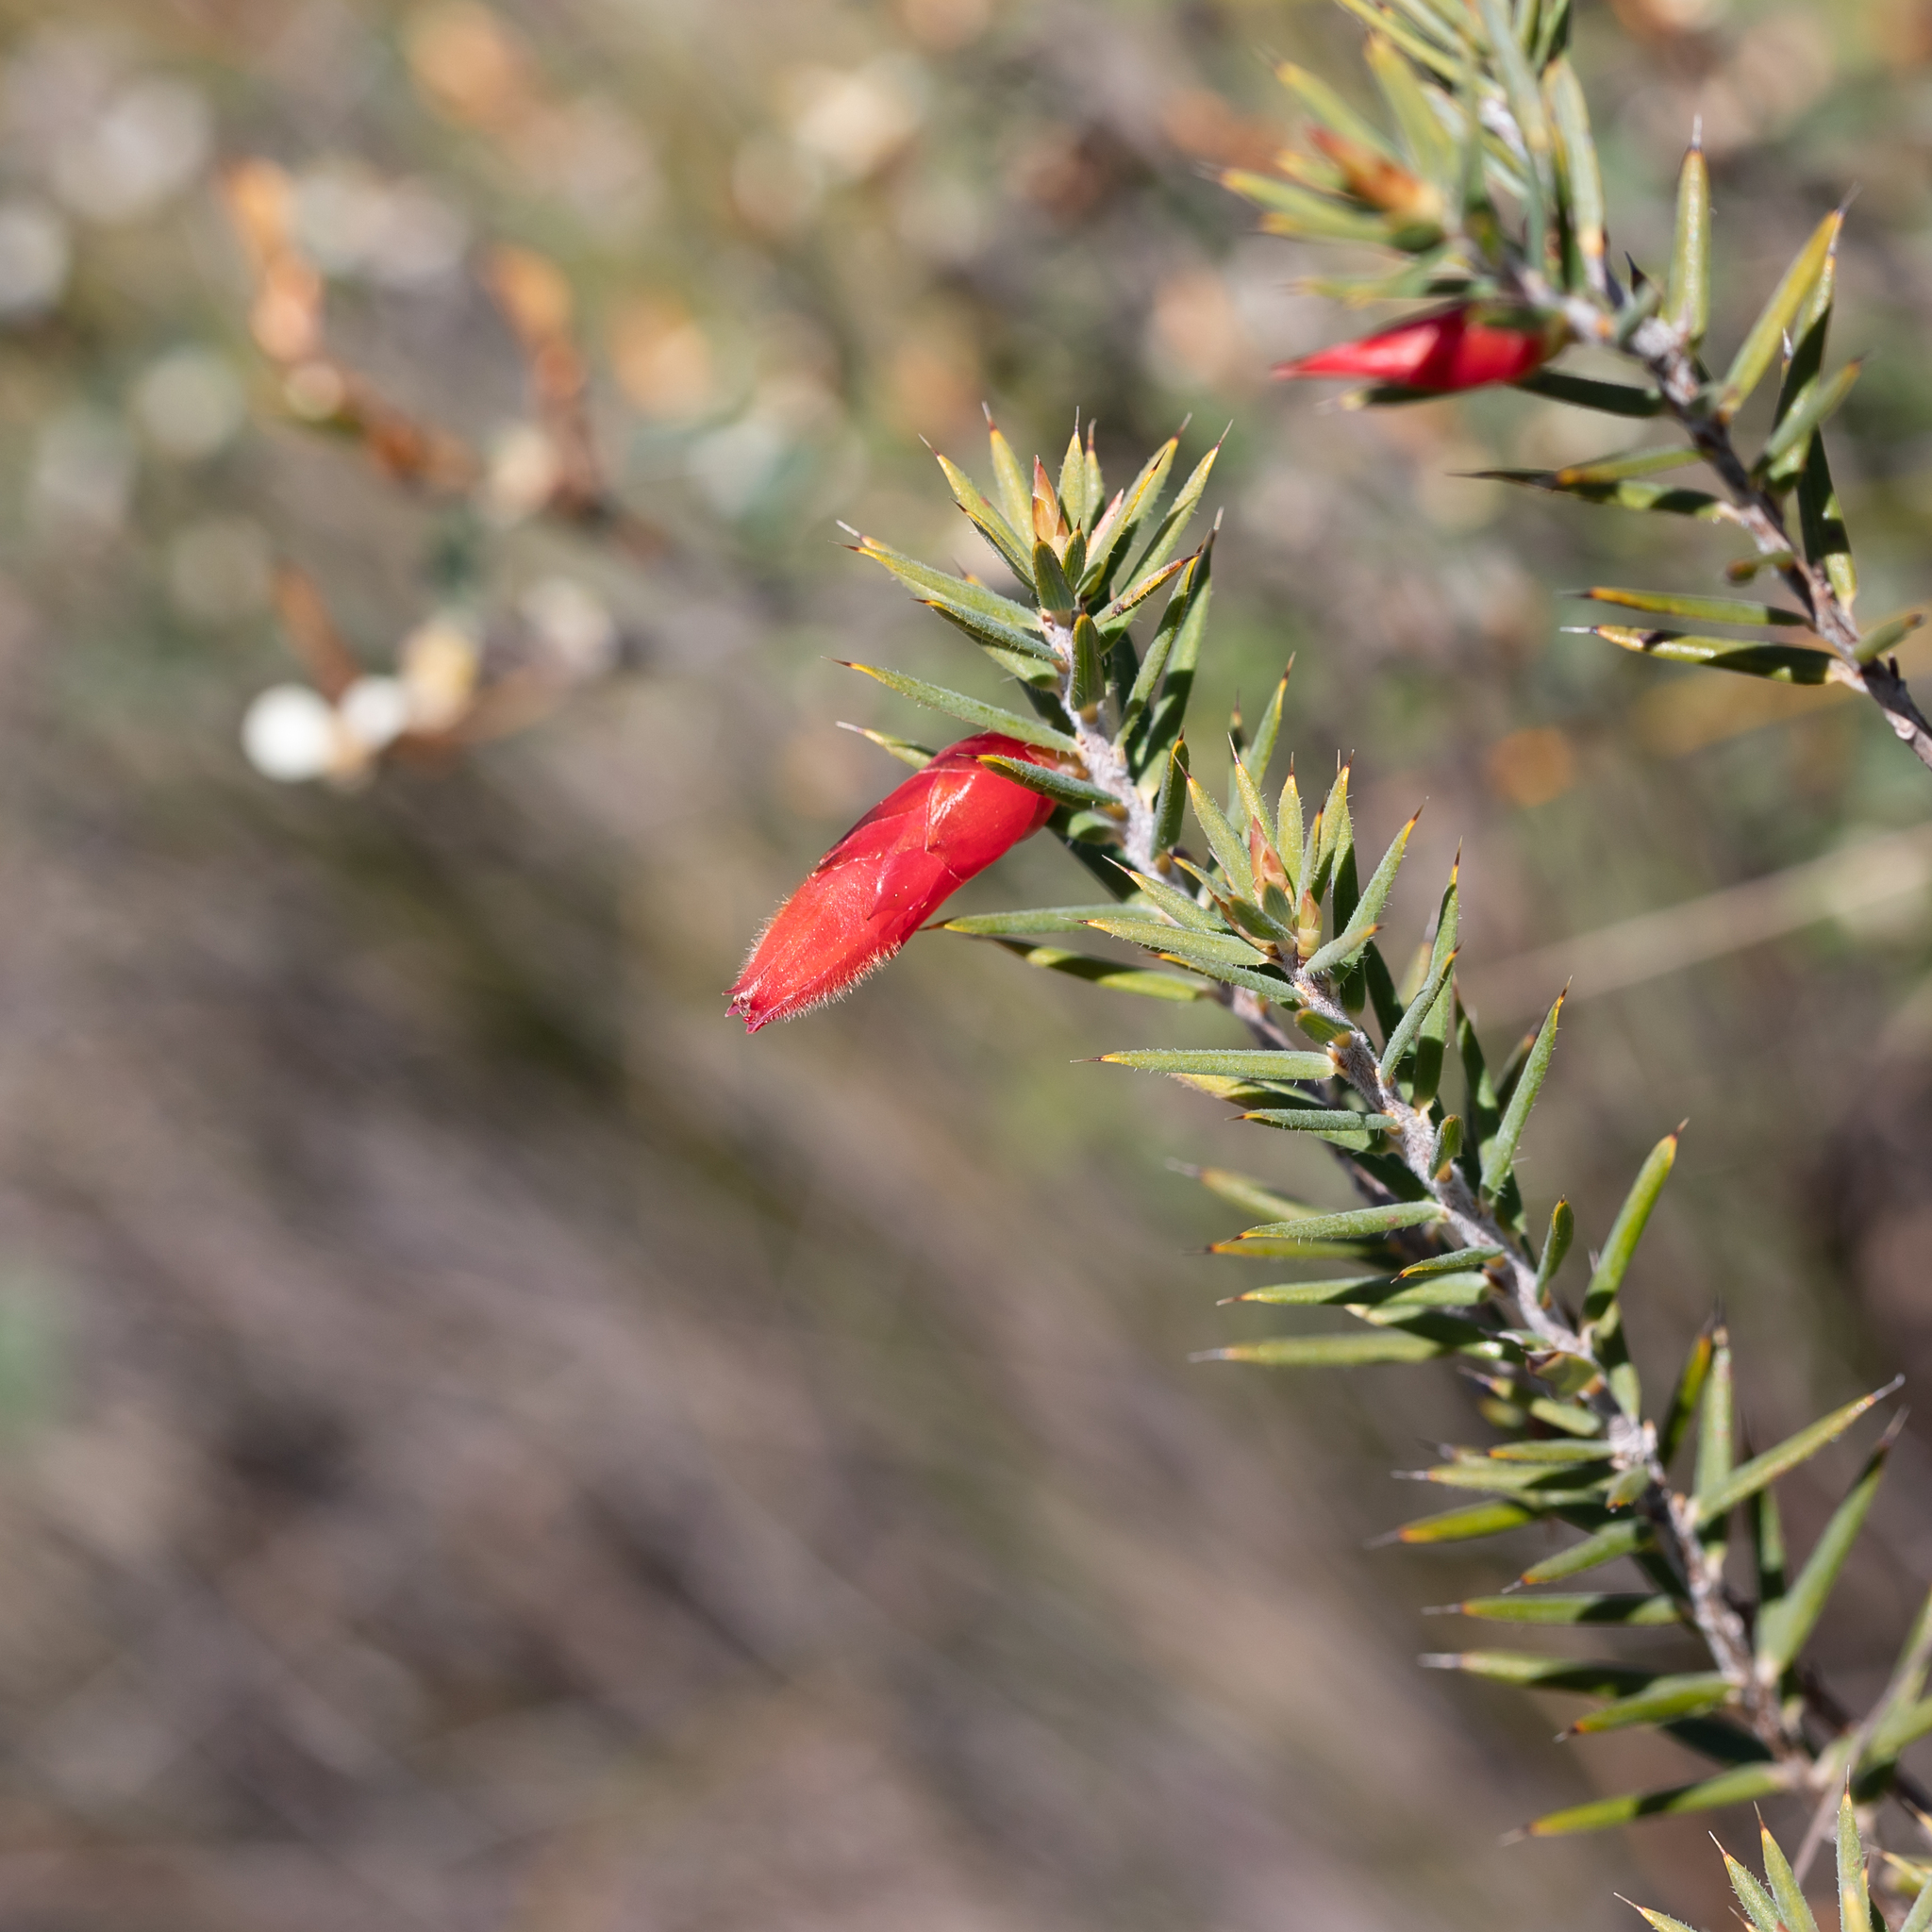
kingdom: Plantae
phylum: Tracheophyta
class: Magnoliopsida
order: Ericales
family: Ericaceae
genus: Stenanthera
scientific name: Stenanthera conostephioides
